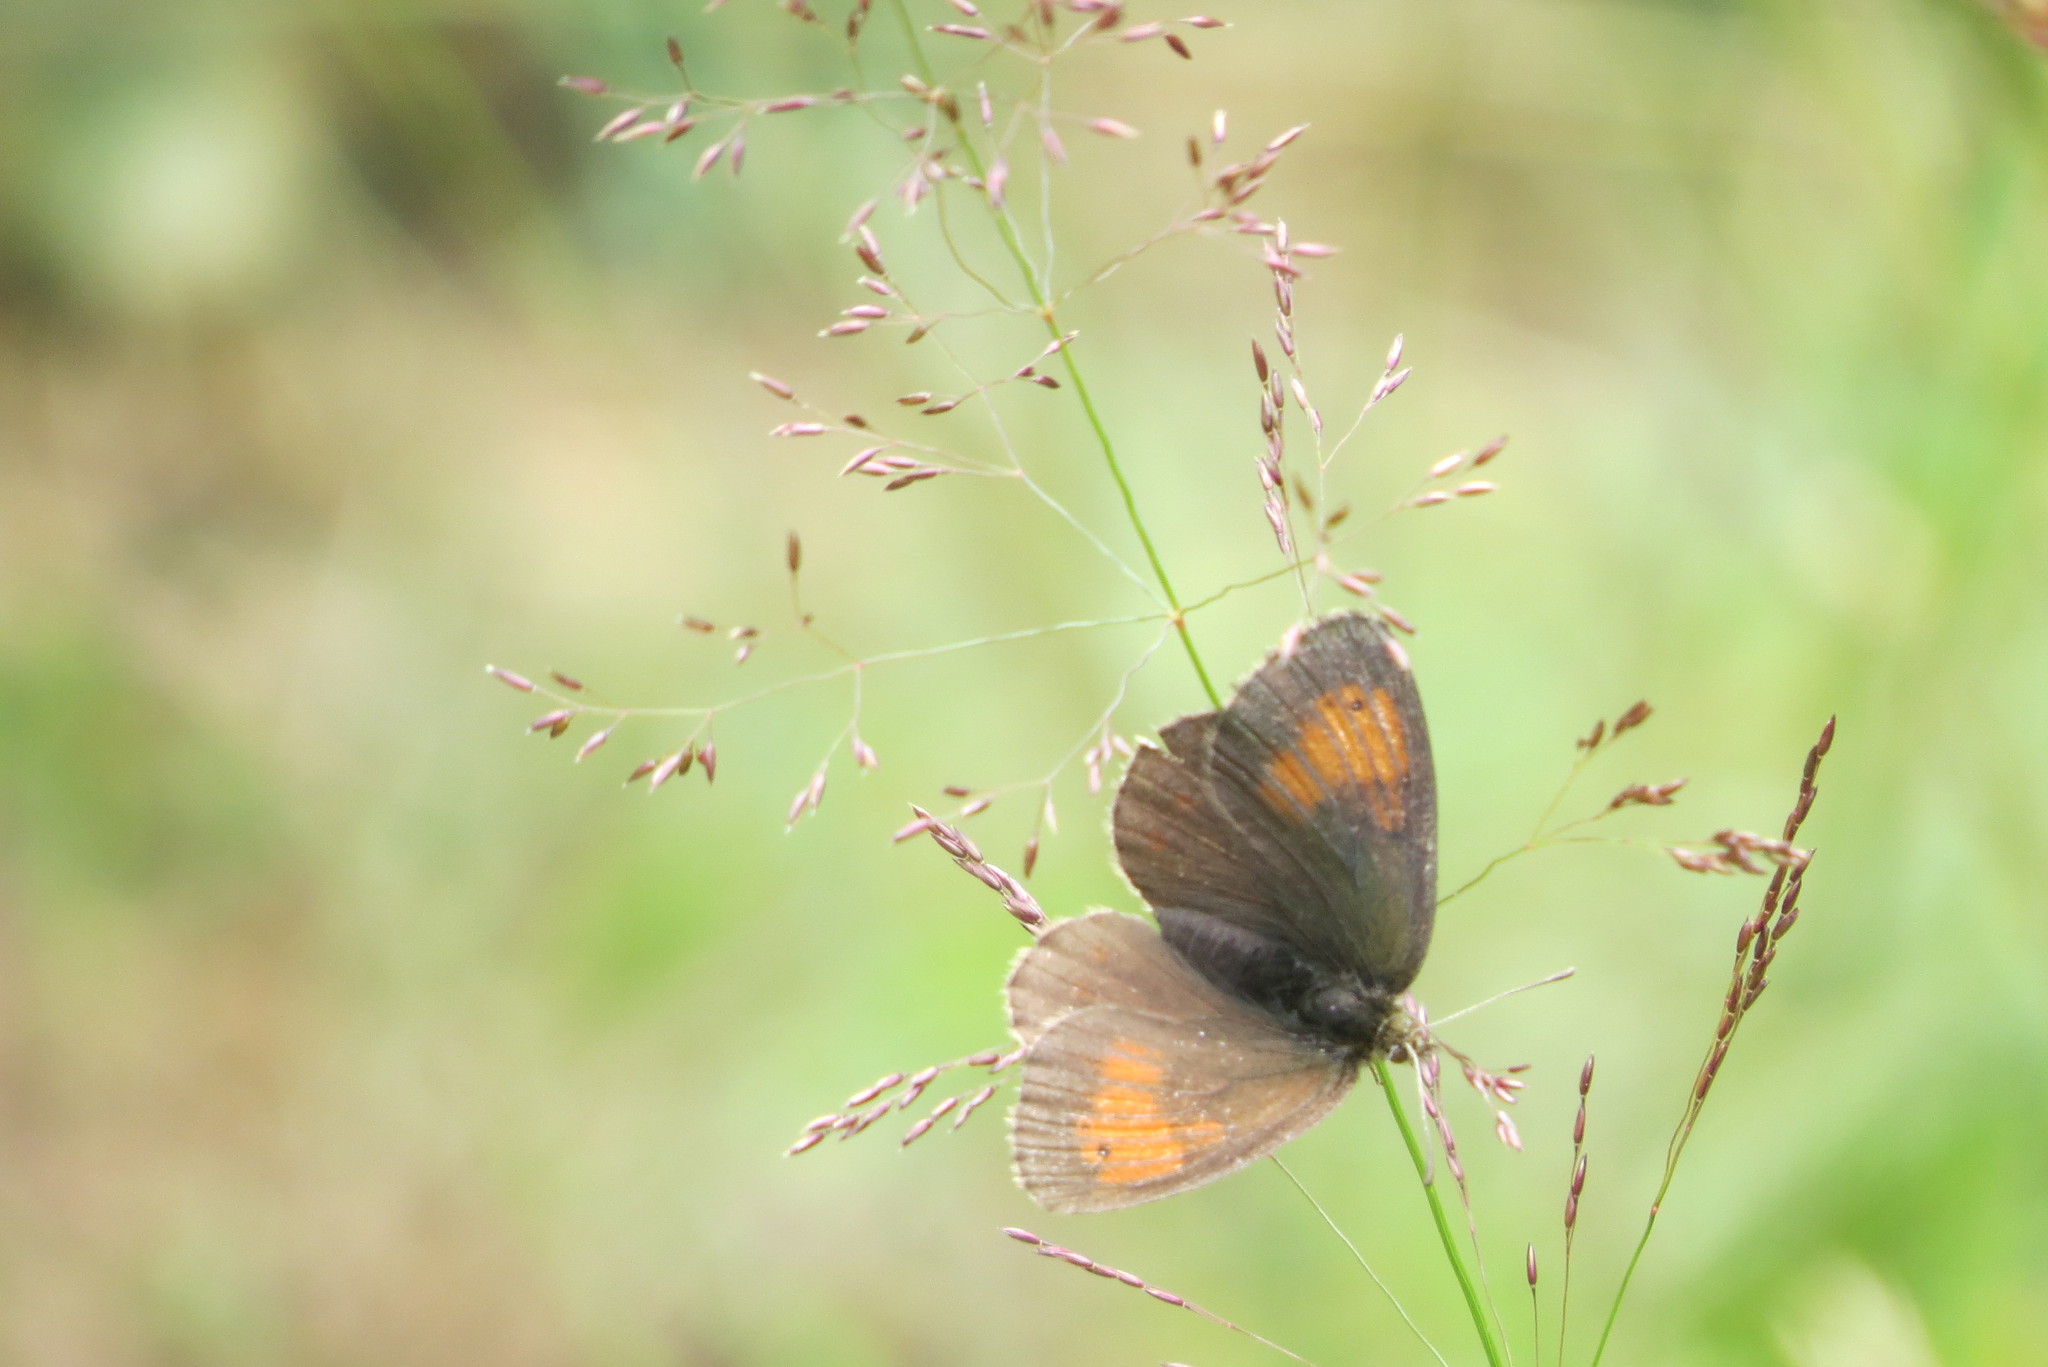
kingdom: Animalia
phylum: Arthropoda
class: Insecta
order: Lepidoptera
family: Nymphalidae
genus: Erebia
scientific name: Erebia tyndarus
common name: Swiss brassy ringlet
